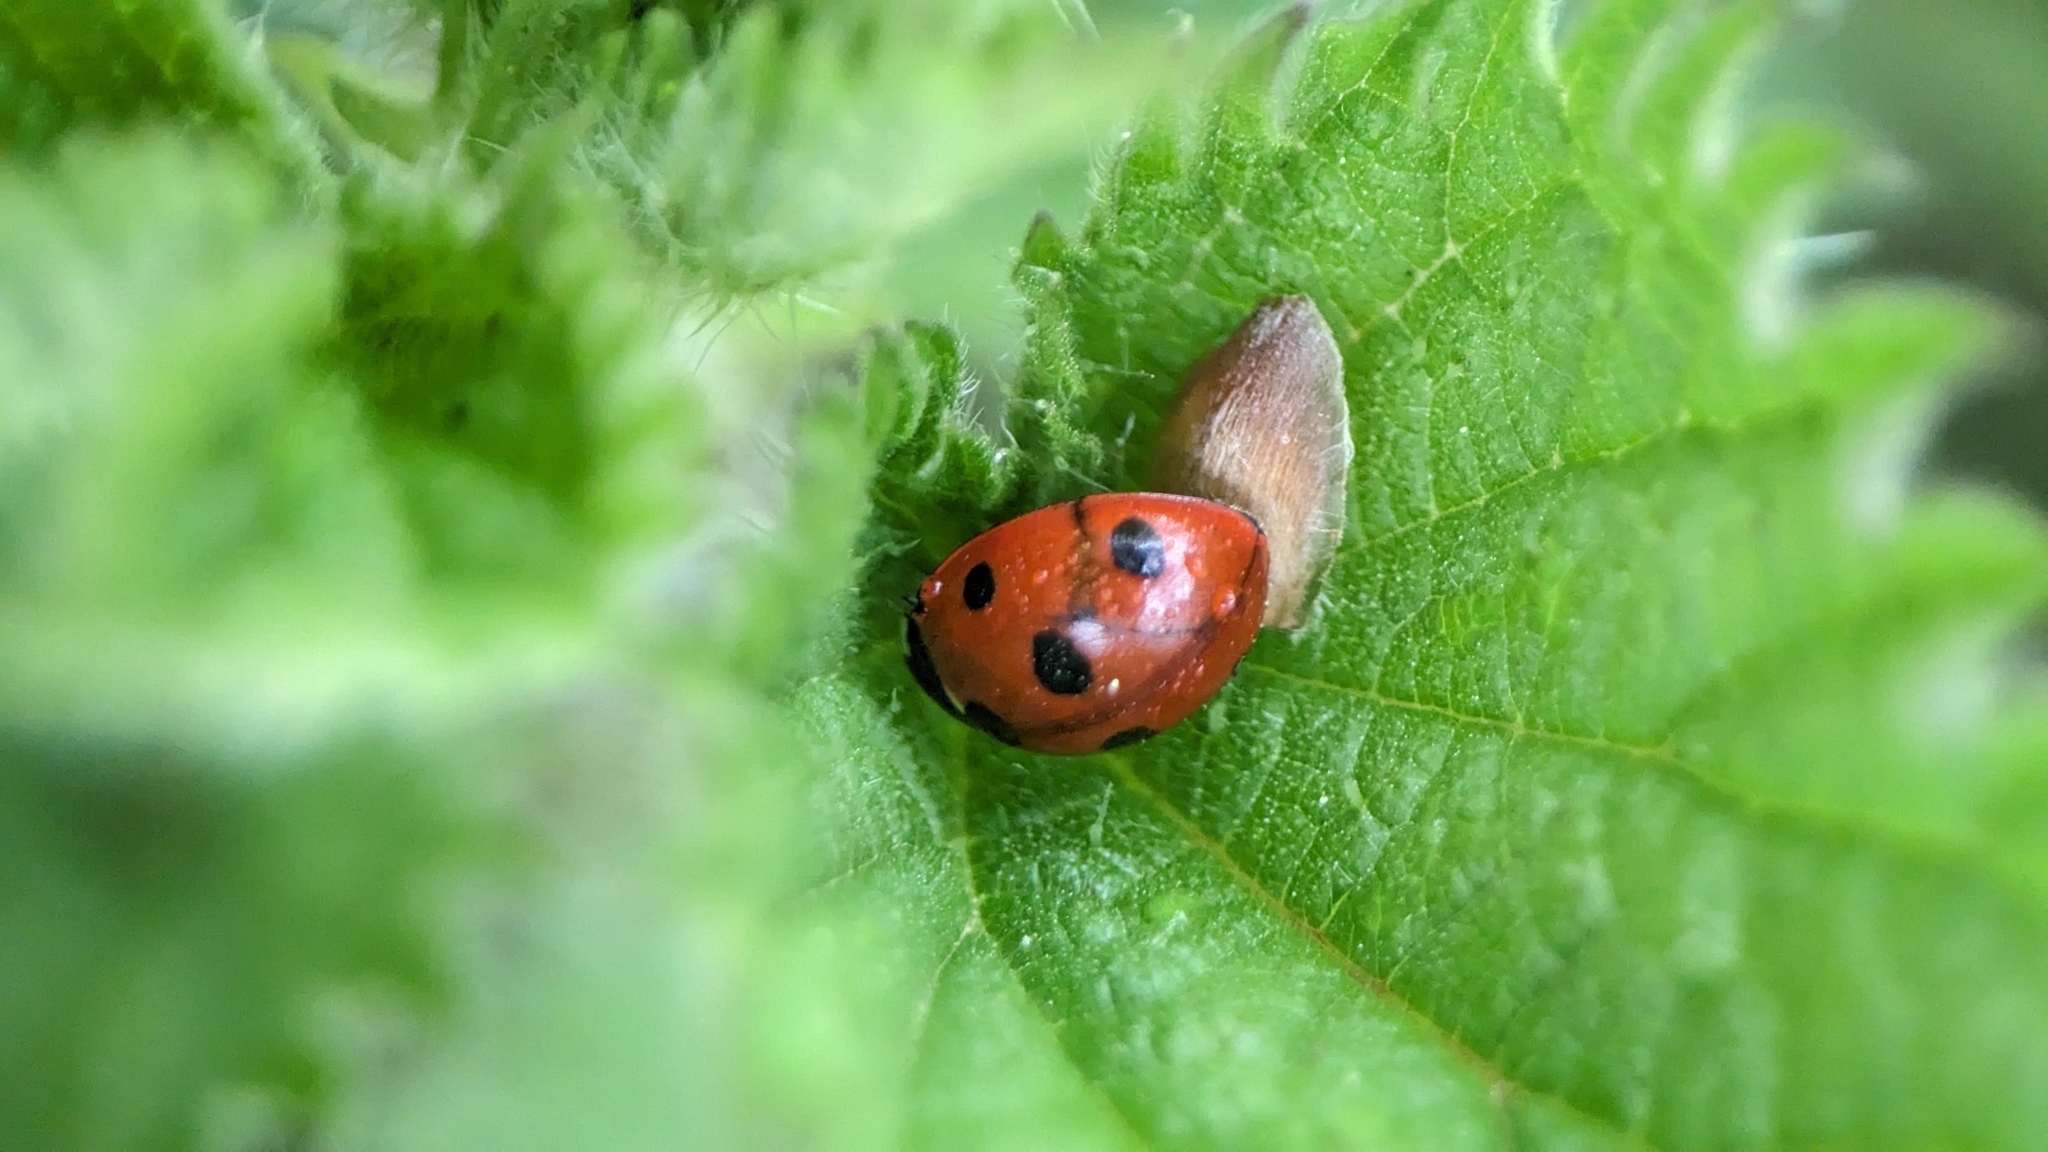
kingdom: Animalia
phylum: Arthropoda
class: Insecta
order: Coleoptera
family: Coccinellidae
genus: Coccinella
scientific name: Coccinella septempunctata
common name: Sevenspotted lady beetle
